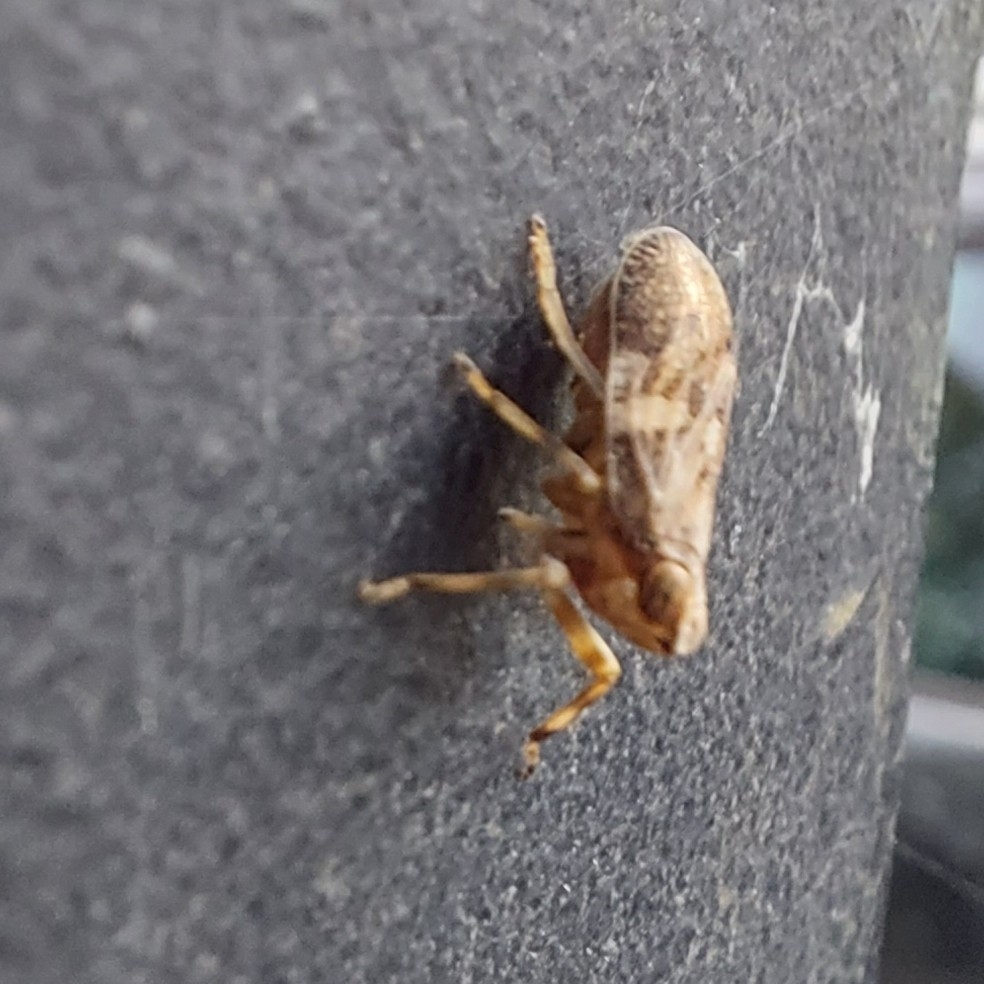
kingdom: Animalia
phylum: Arthropoda
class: Insecta
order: Hemiptera
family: Issidae
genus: Issus
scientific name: Issus coleoptratus
